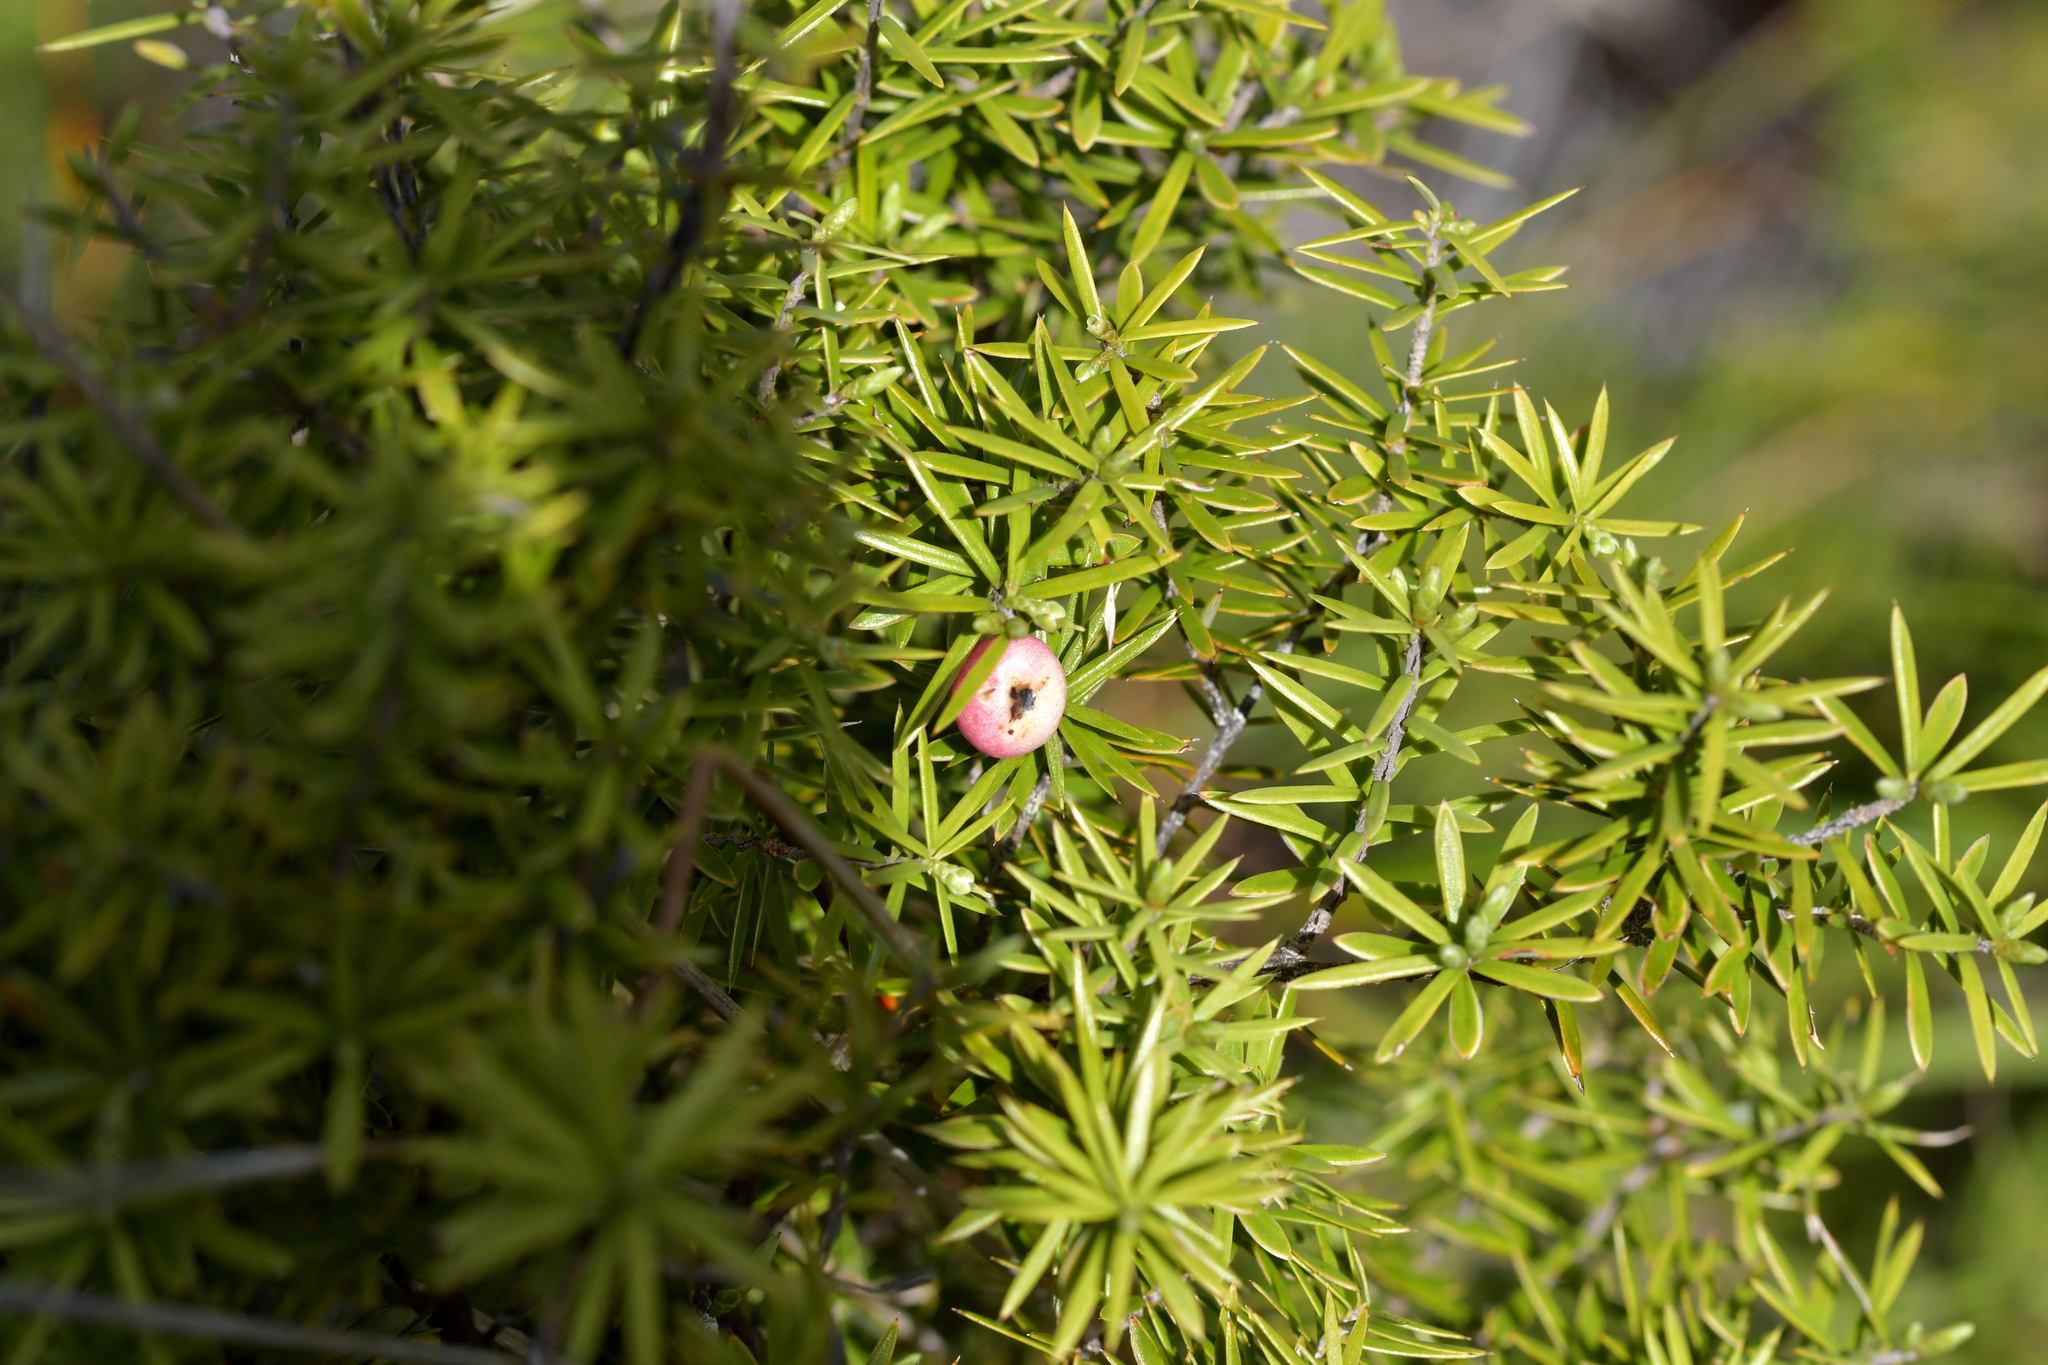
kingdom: Plantae
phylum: Tracheophyta
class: Magnoliopsida
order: Ericales
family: Ericaceae
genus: Leptecophylla
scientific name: Leptecophylla juniperina
